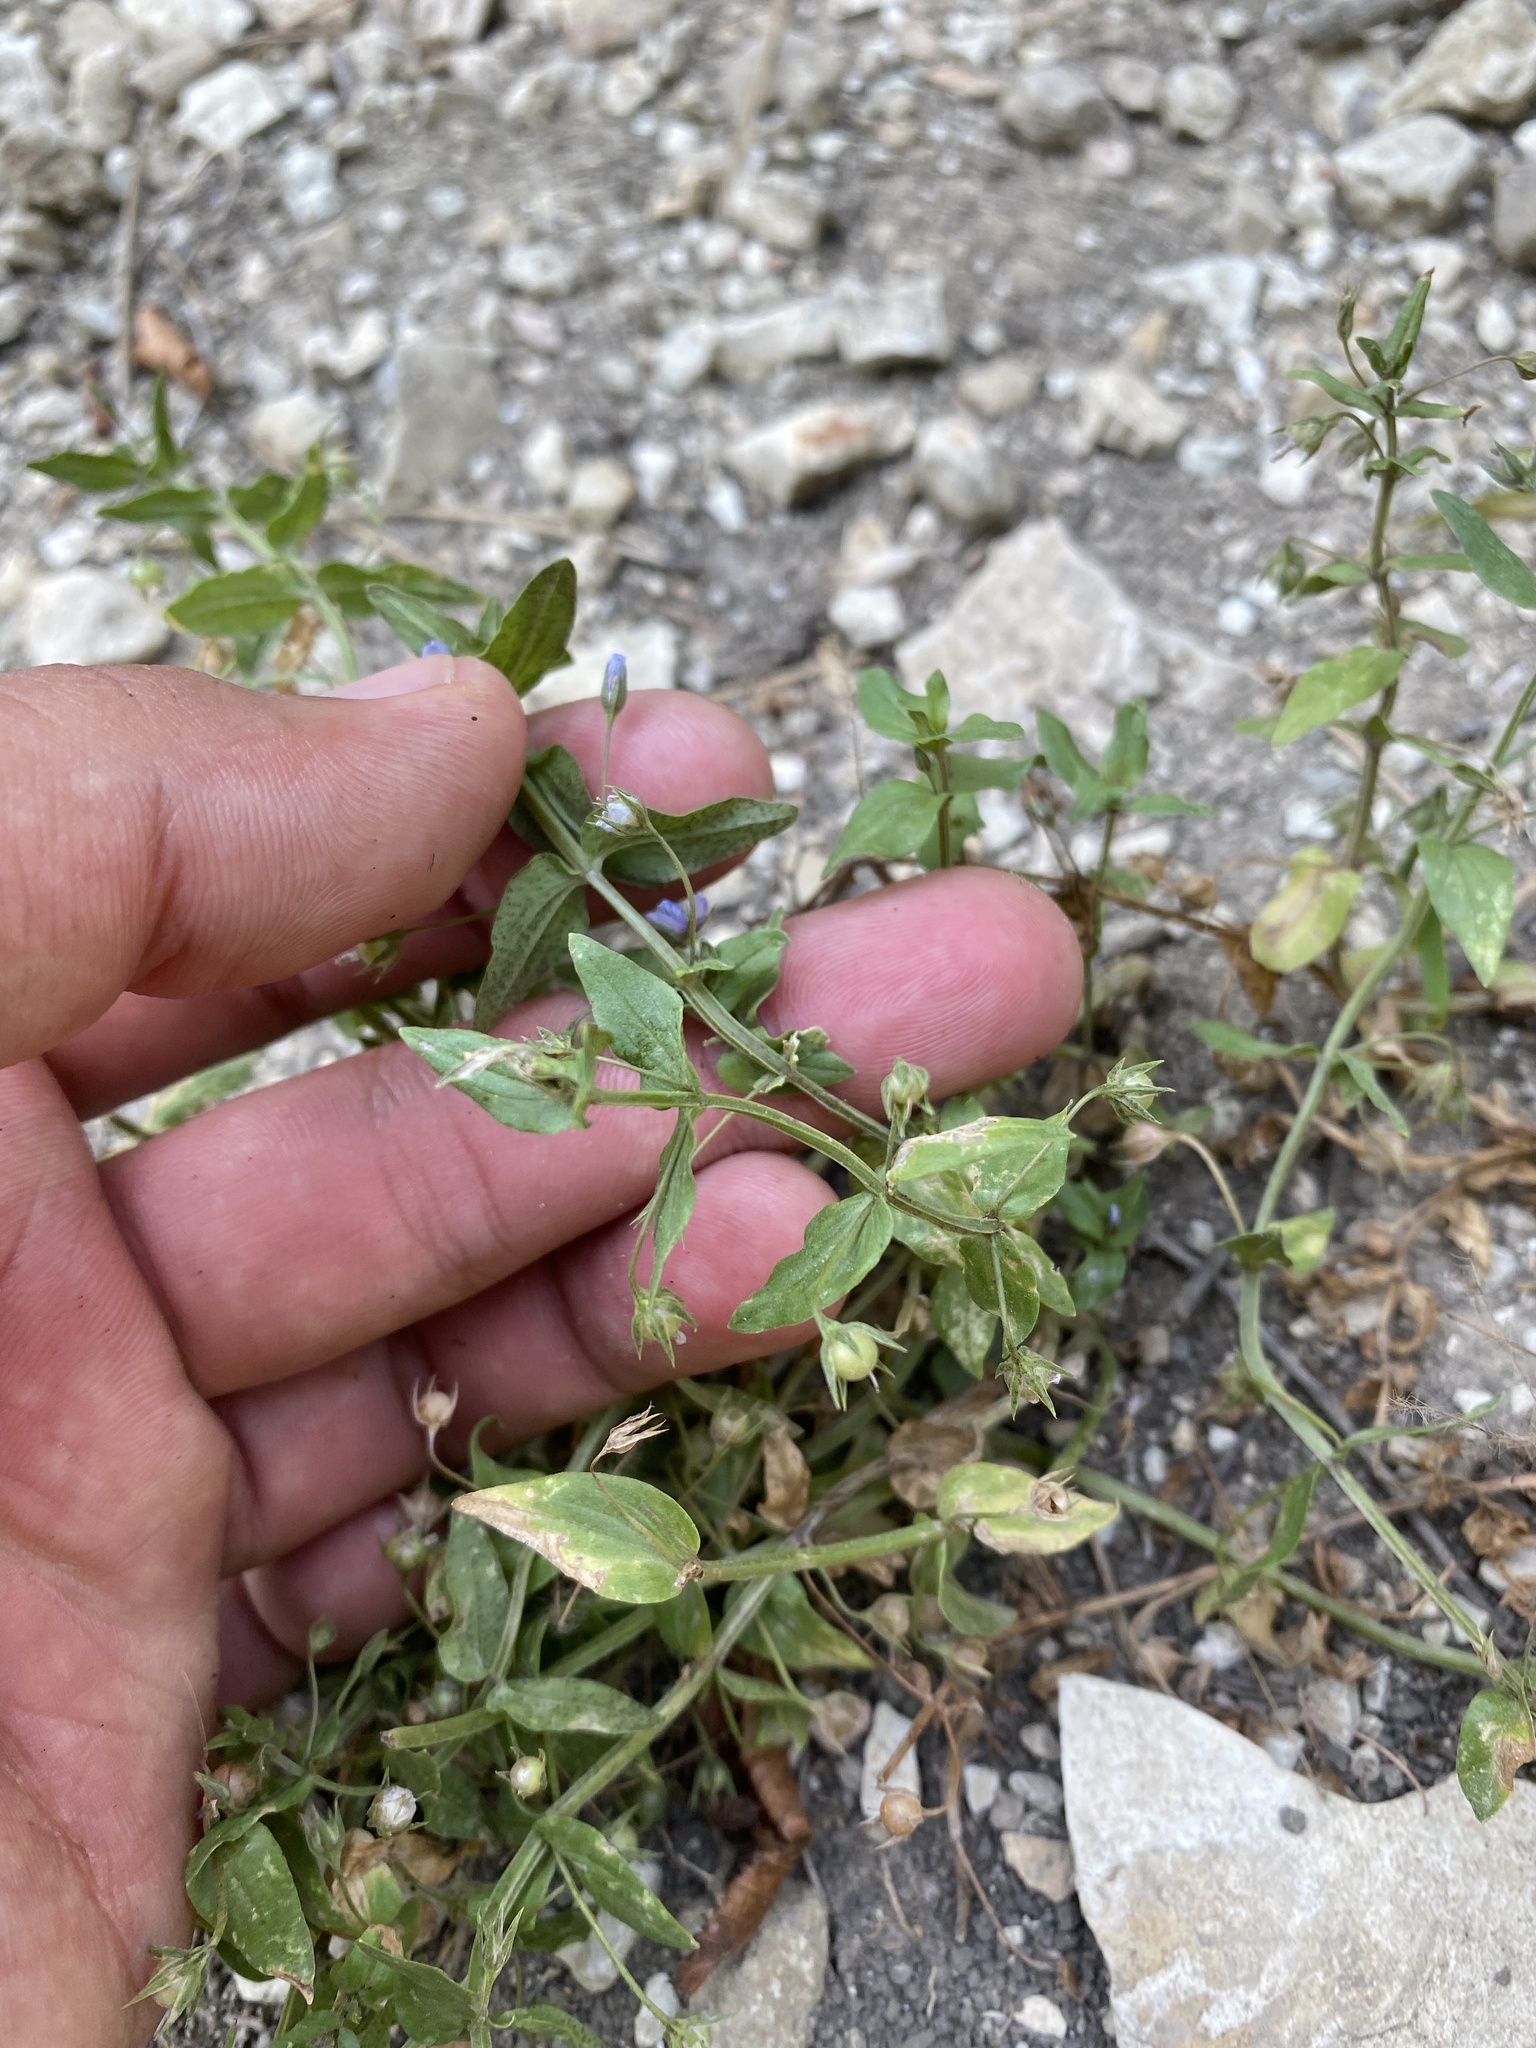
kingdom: Plantae
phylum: Tracheophyta
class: Magnoliopsida
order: Ericales
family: Primulaceae
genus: Lysimachia
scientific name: Lysimachia foemina
